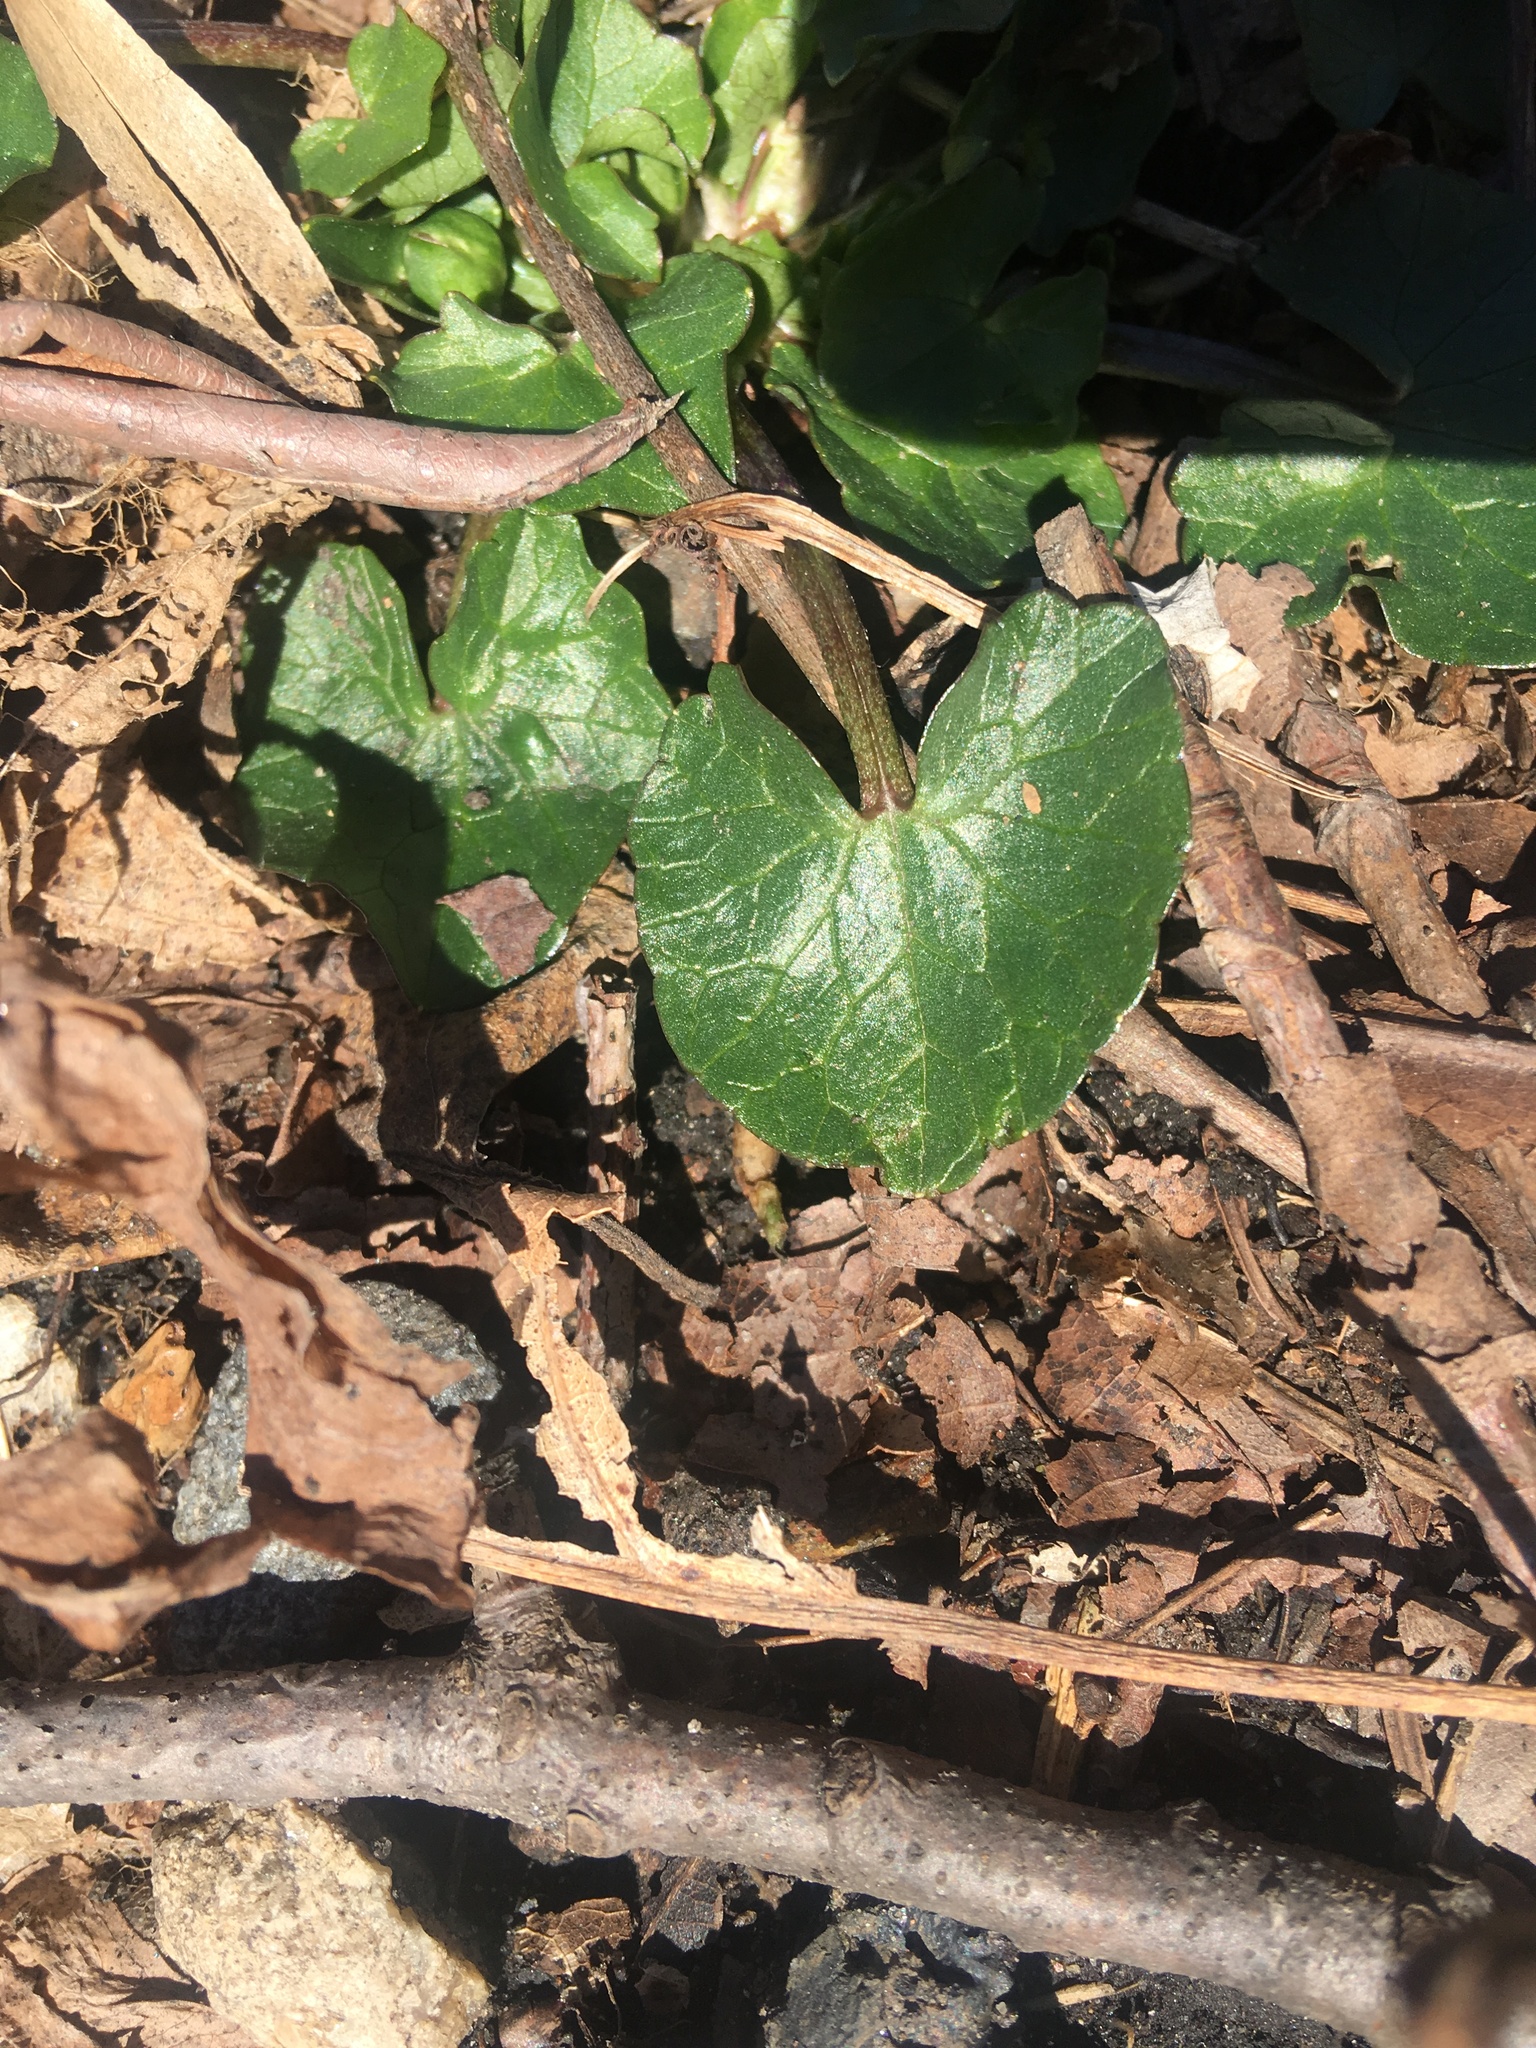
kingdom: Plantae
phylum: Tracheophyta
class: Magnoliopsida
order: Ranunculales
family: Ranunculaceae
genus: Ficaria
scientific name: Ficaria verna
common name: Lesser celandine
